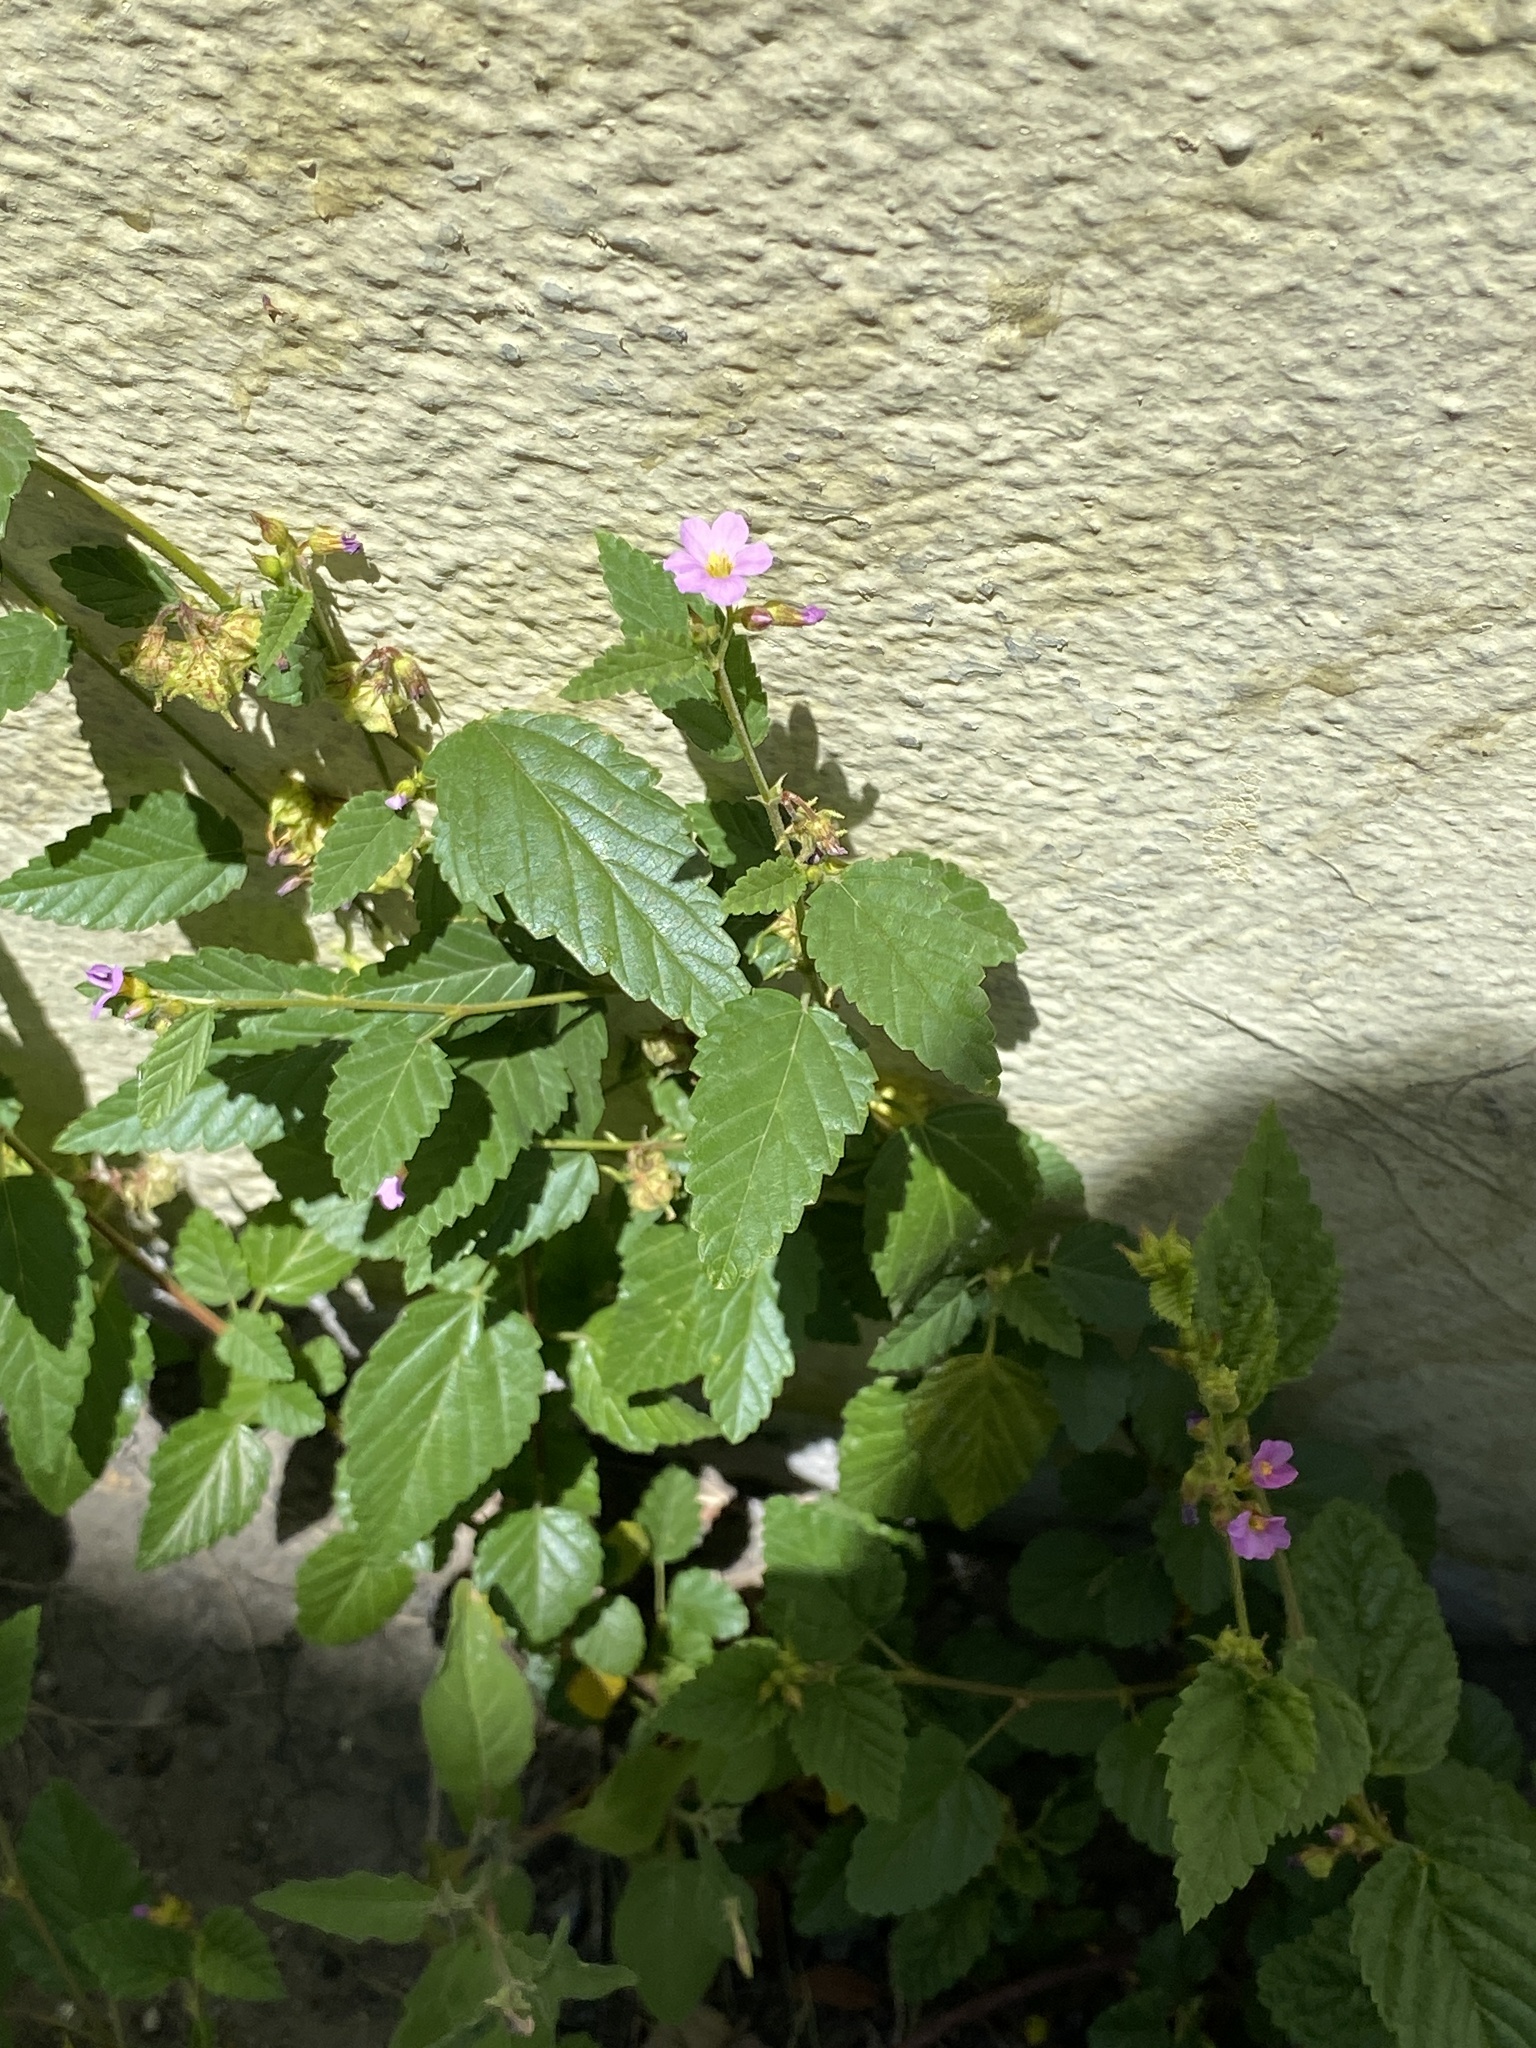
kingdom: Plantae
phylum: Tracheophyta
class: Magnoliopsida
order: Malvales
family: Malvaceae
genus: Melochia
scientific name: Melochia pyramidata
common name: Pyramidflower
